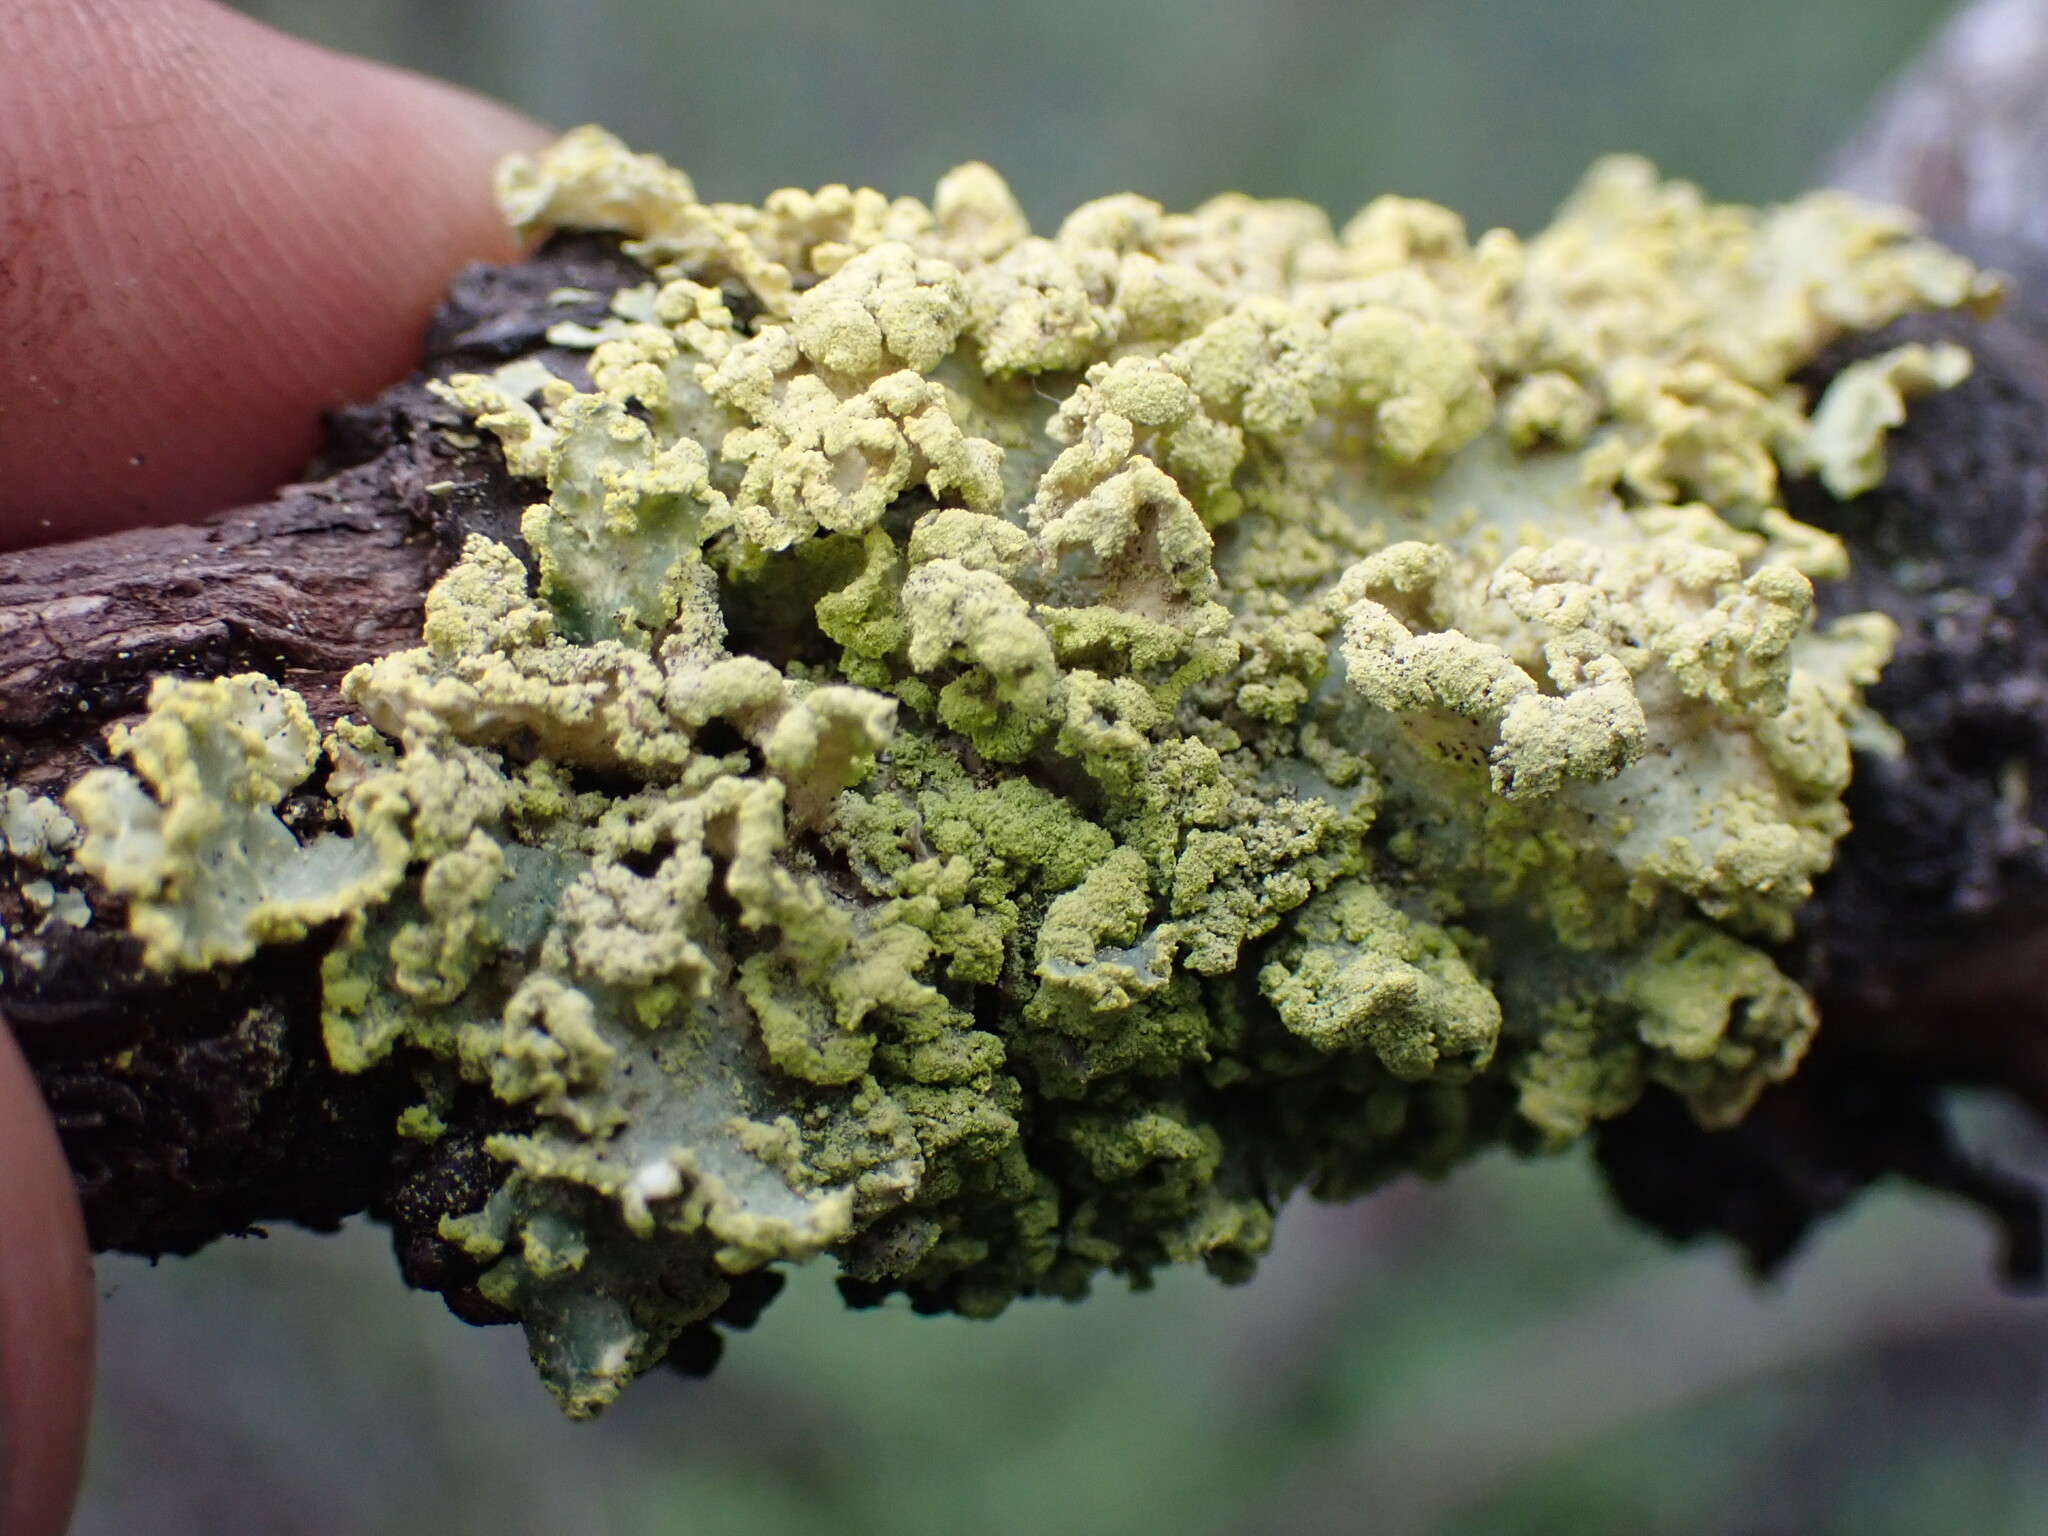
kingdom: Fungi
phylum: Ascomycota
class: Lecanoromycetes
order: Lecanorales
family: Parmeliaceae
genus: Vulpicida
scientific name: Vulpicida pinastri
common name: Powdered sunshine lichen
